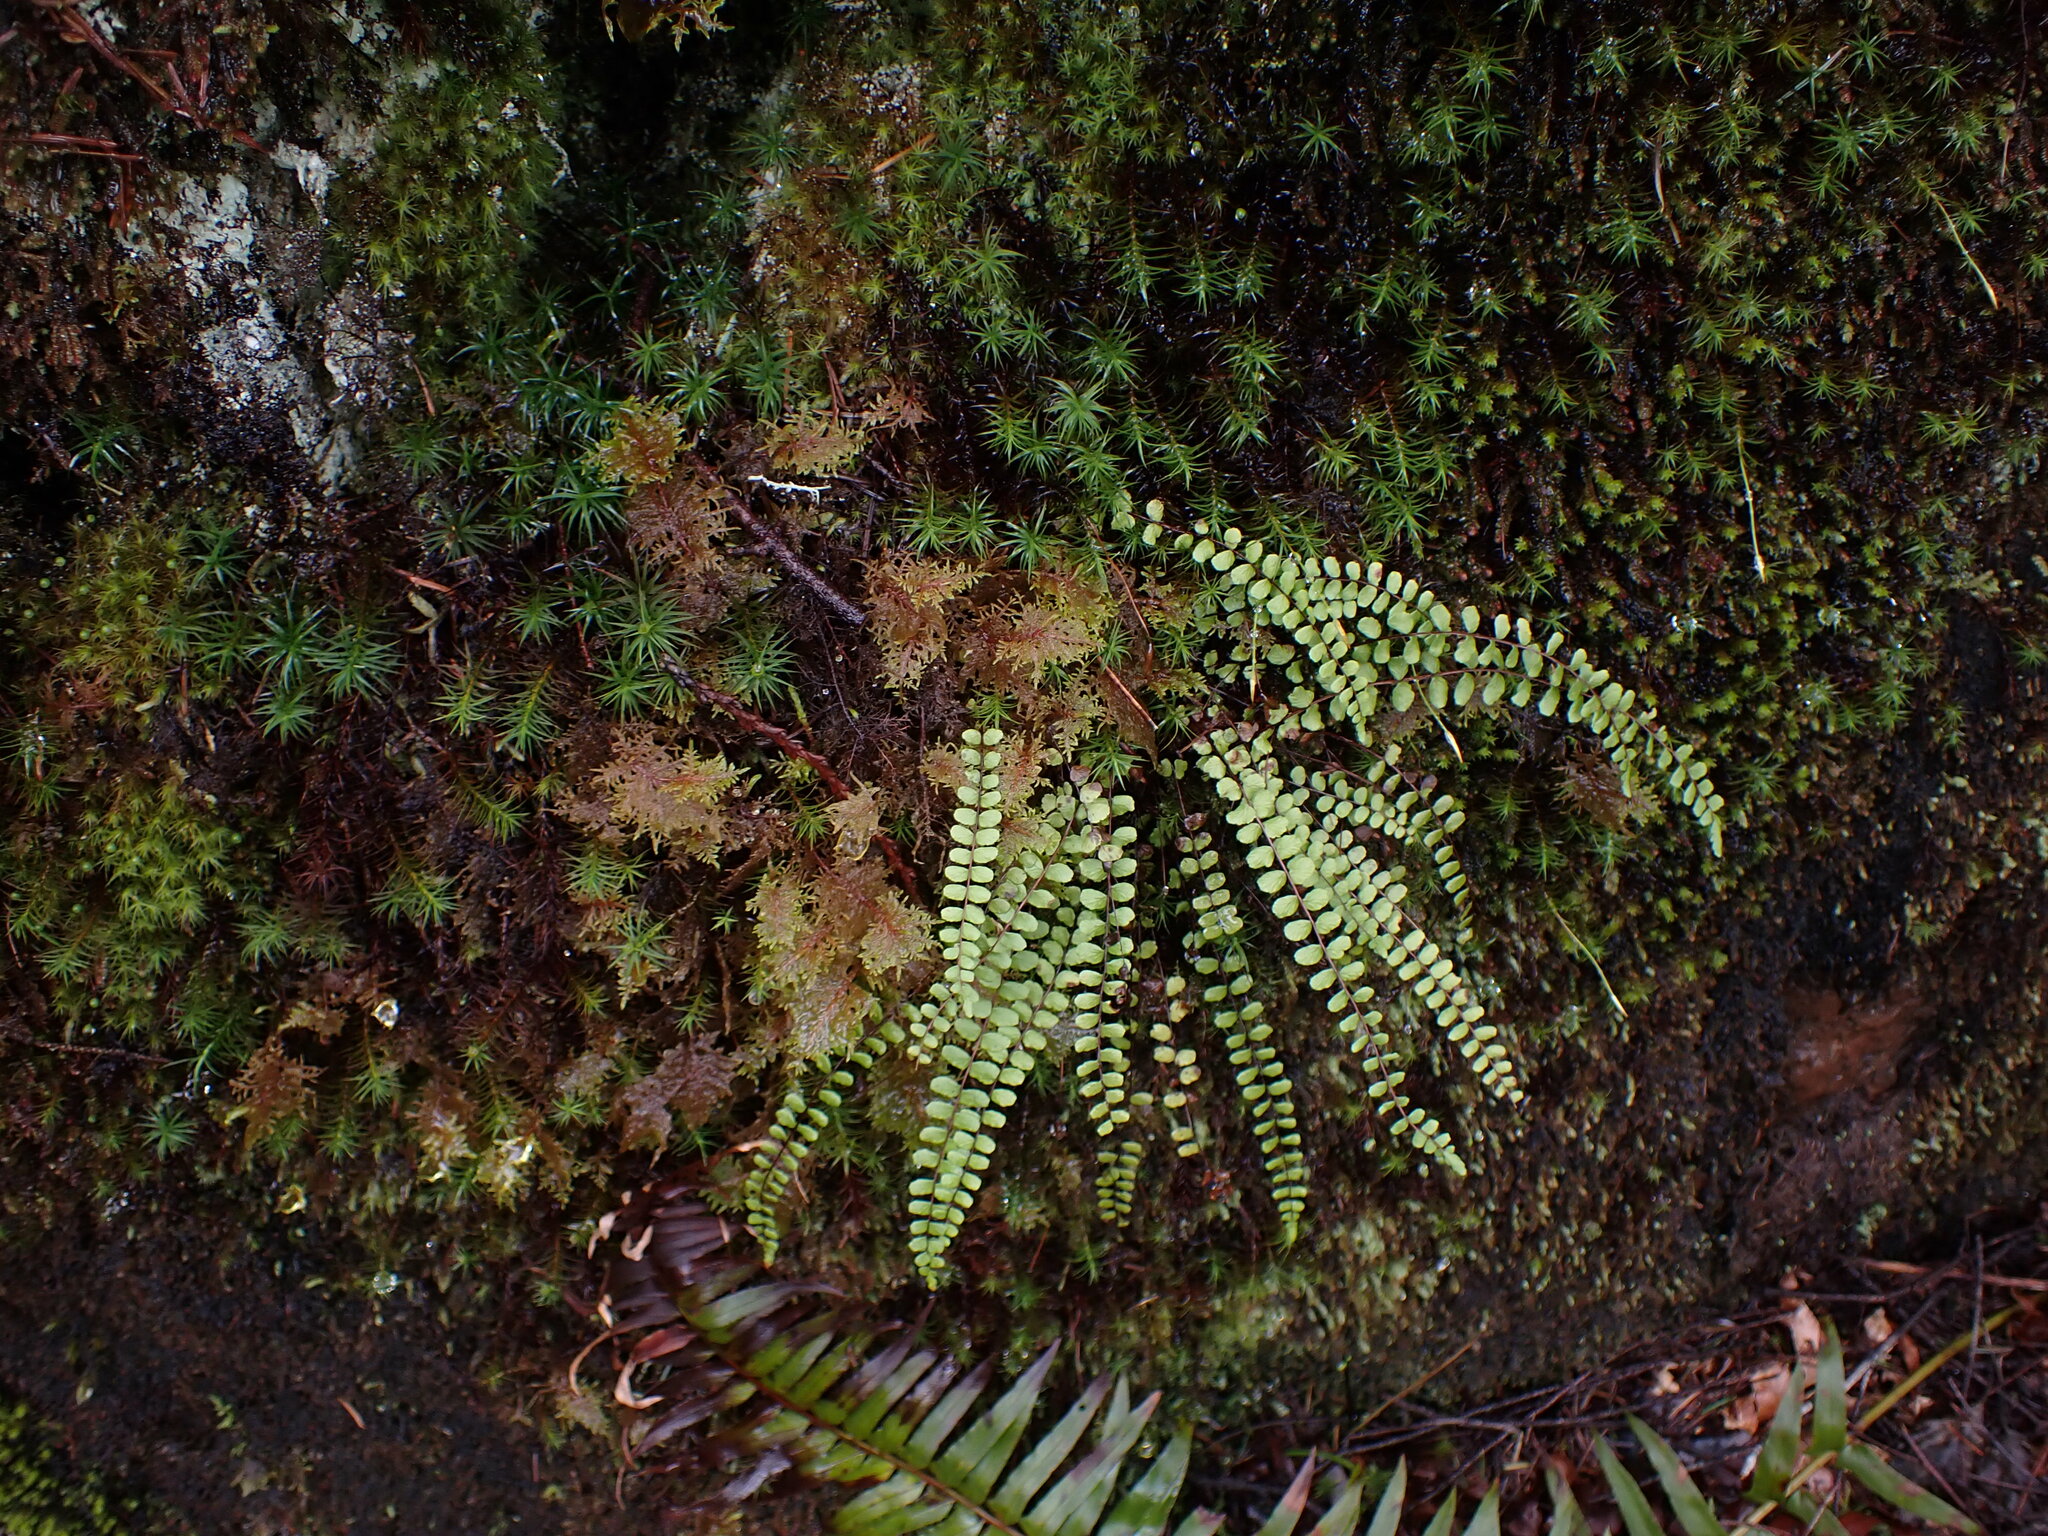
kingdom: Plantae
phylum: Tracheophyta
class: Polypodiopsida
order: Polypodiales
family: Aspleniaceae
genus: Asplenium
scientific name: Asplenium trichomanes
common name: Maidenhair spleenwort
